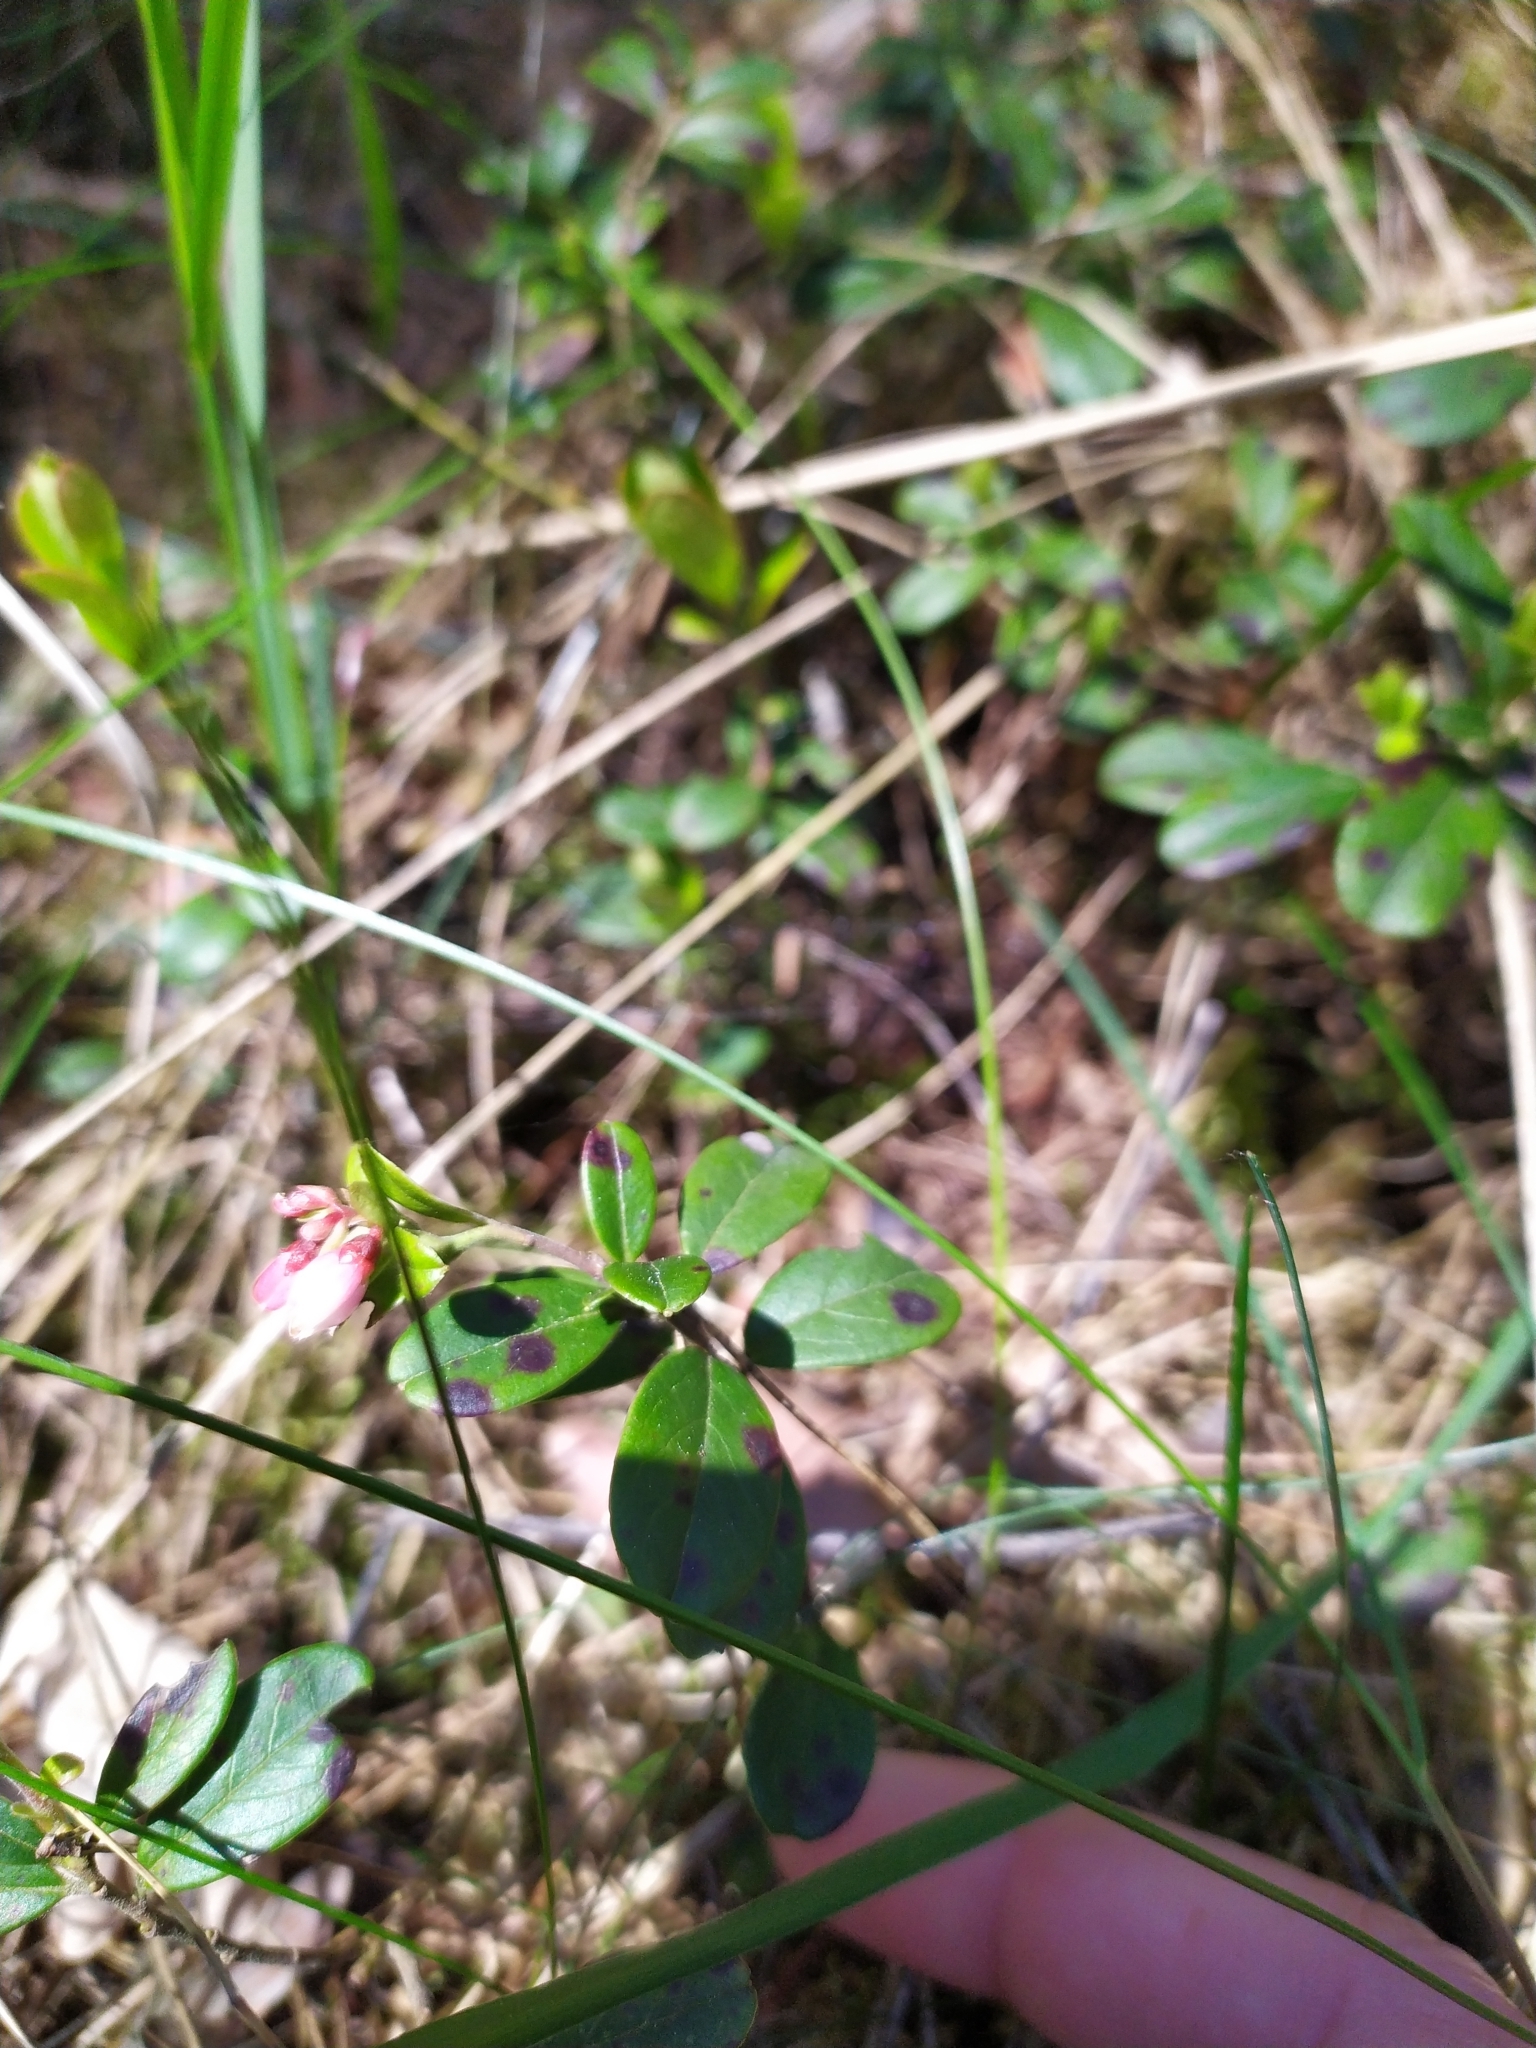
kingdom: Plantae
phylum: Tracheophyta
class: Magnoliopsida
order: Ericales
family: Ericaceae
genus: Vaccinium
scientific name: Vaccinium vitis-idaea
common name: Cowberry
